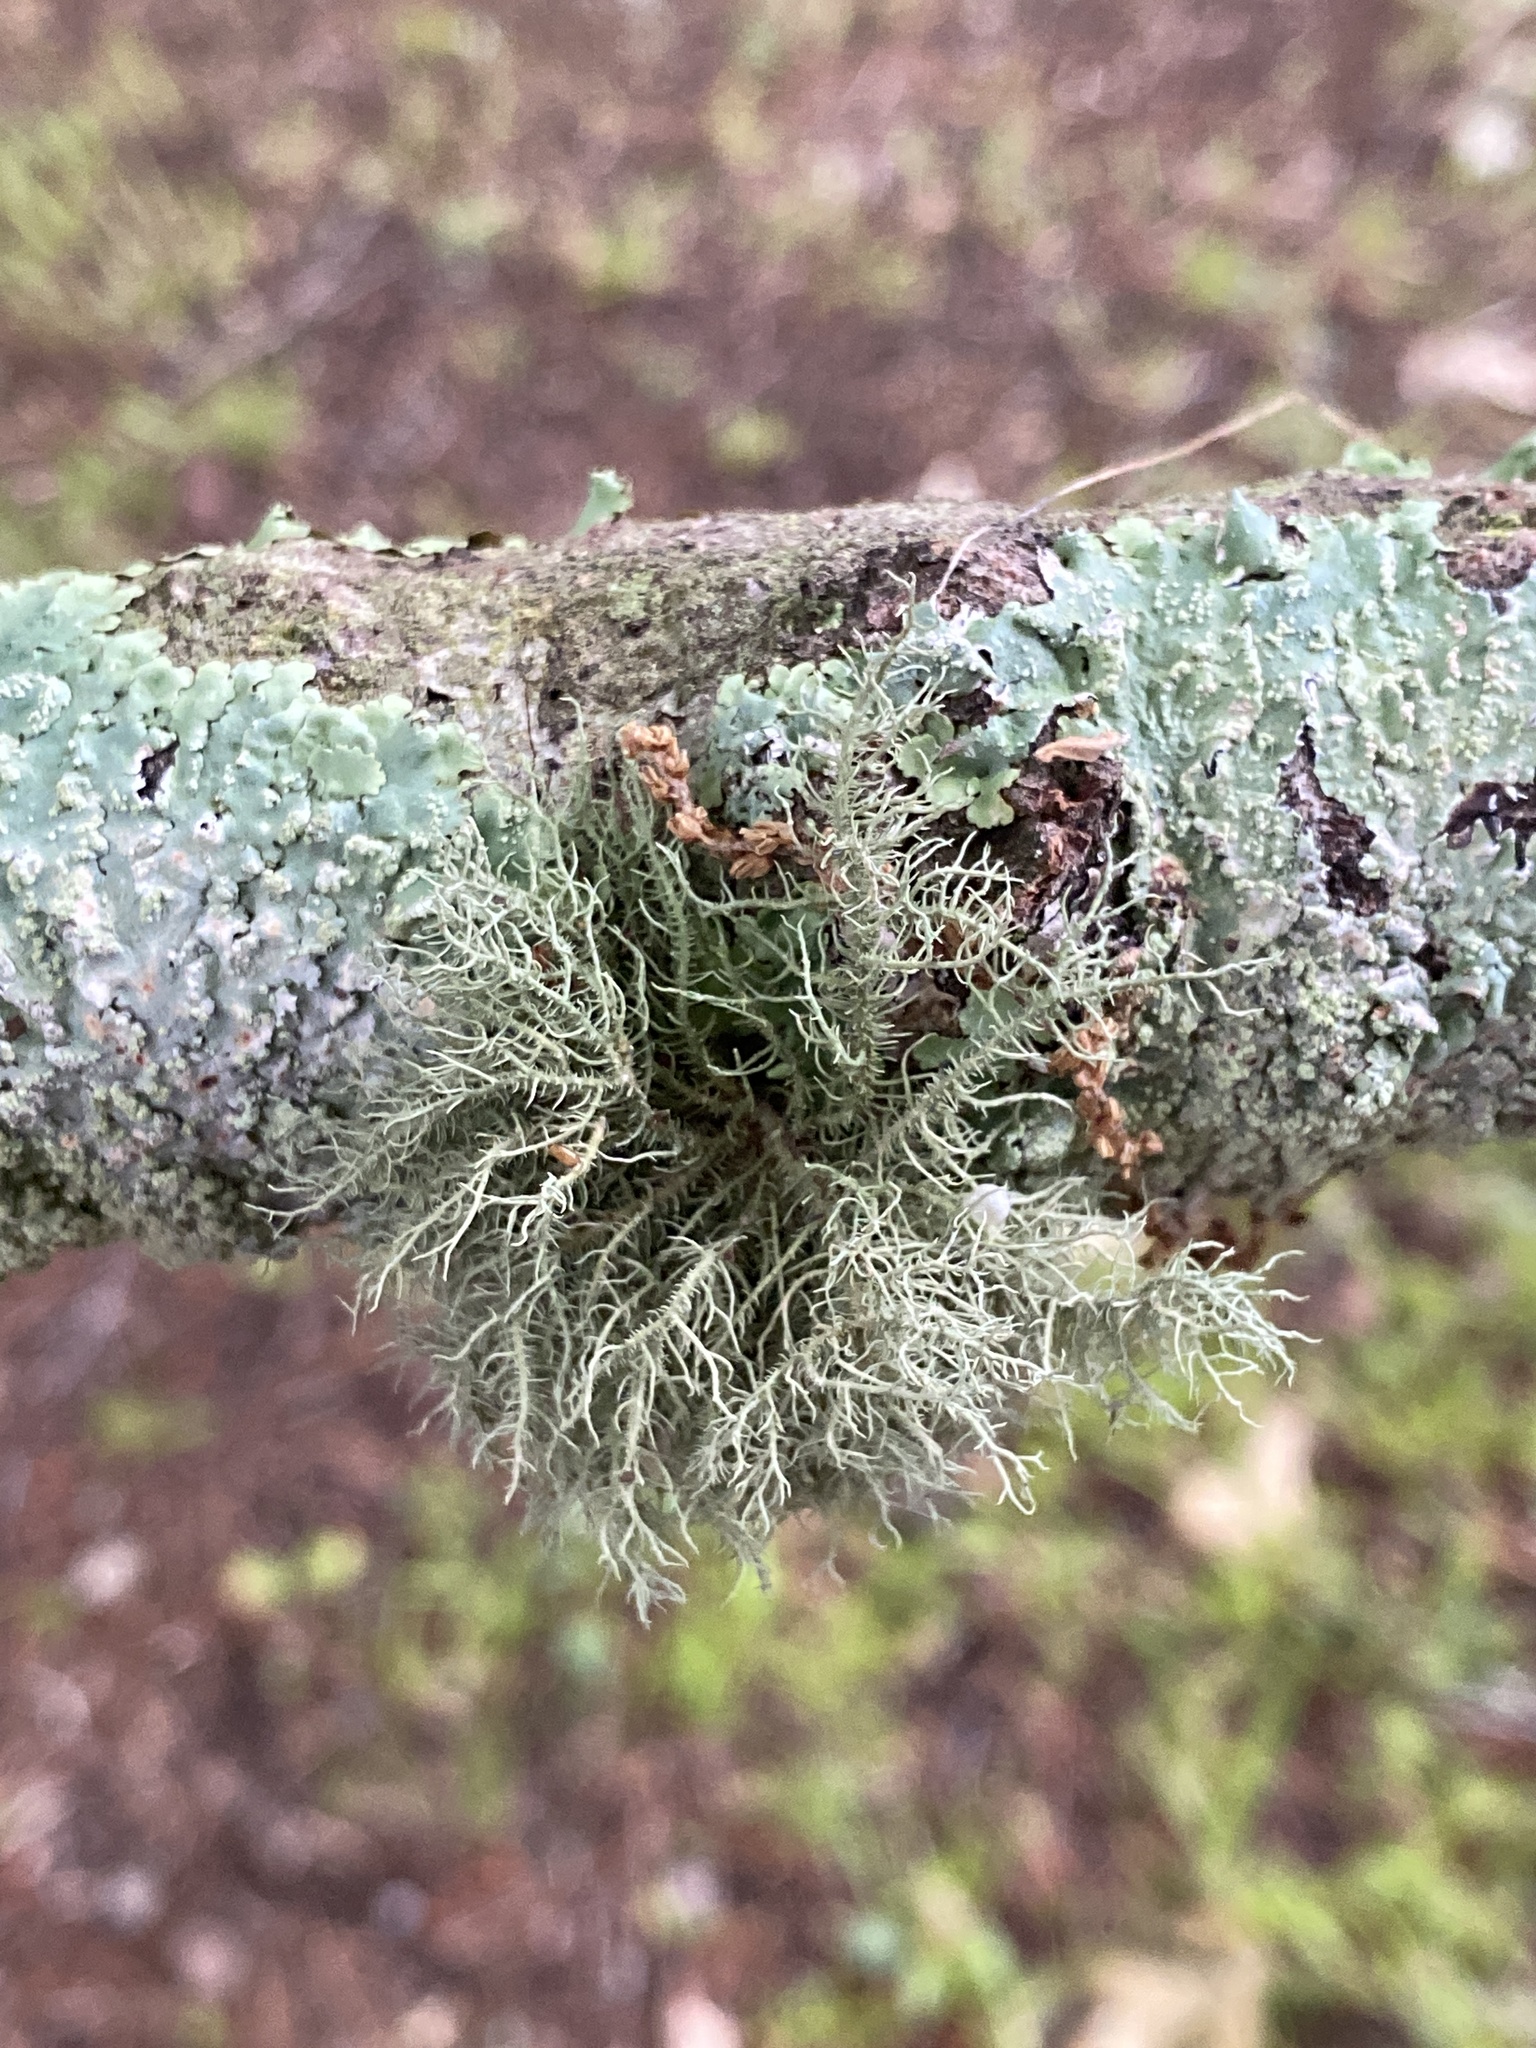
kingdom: Fungi
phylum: Ascomycota
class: Lecanoromycetes
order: Lecanorales
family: Parmeliaceae
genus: Usnea
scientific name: Usnea strigosa
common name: Bushy beard lichen
